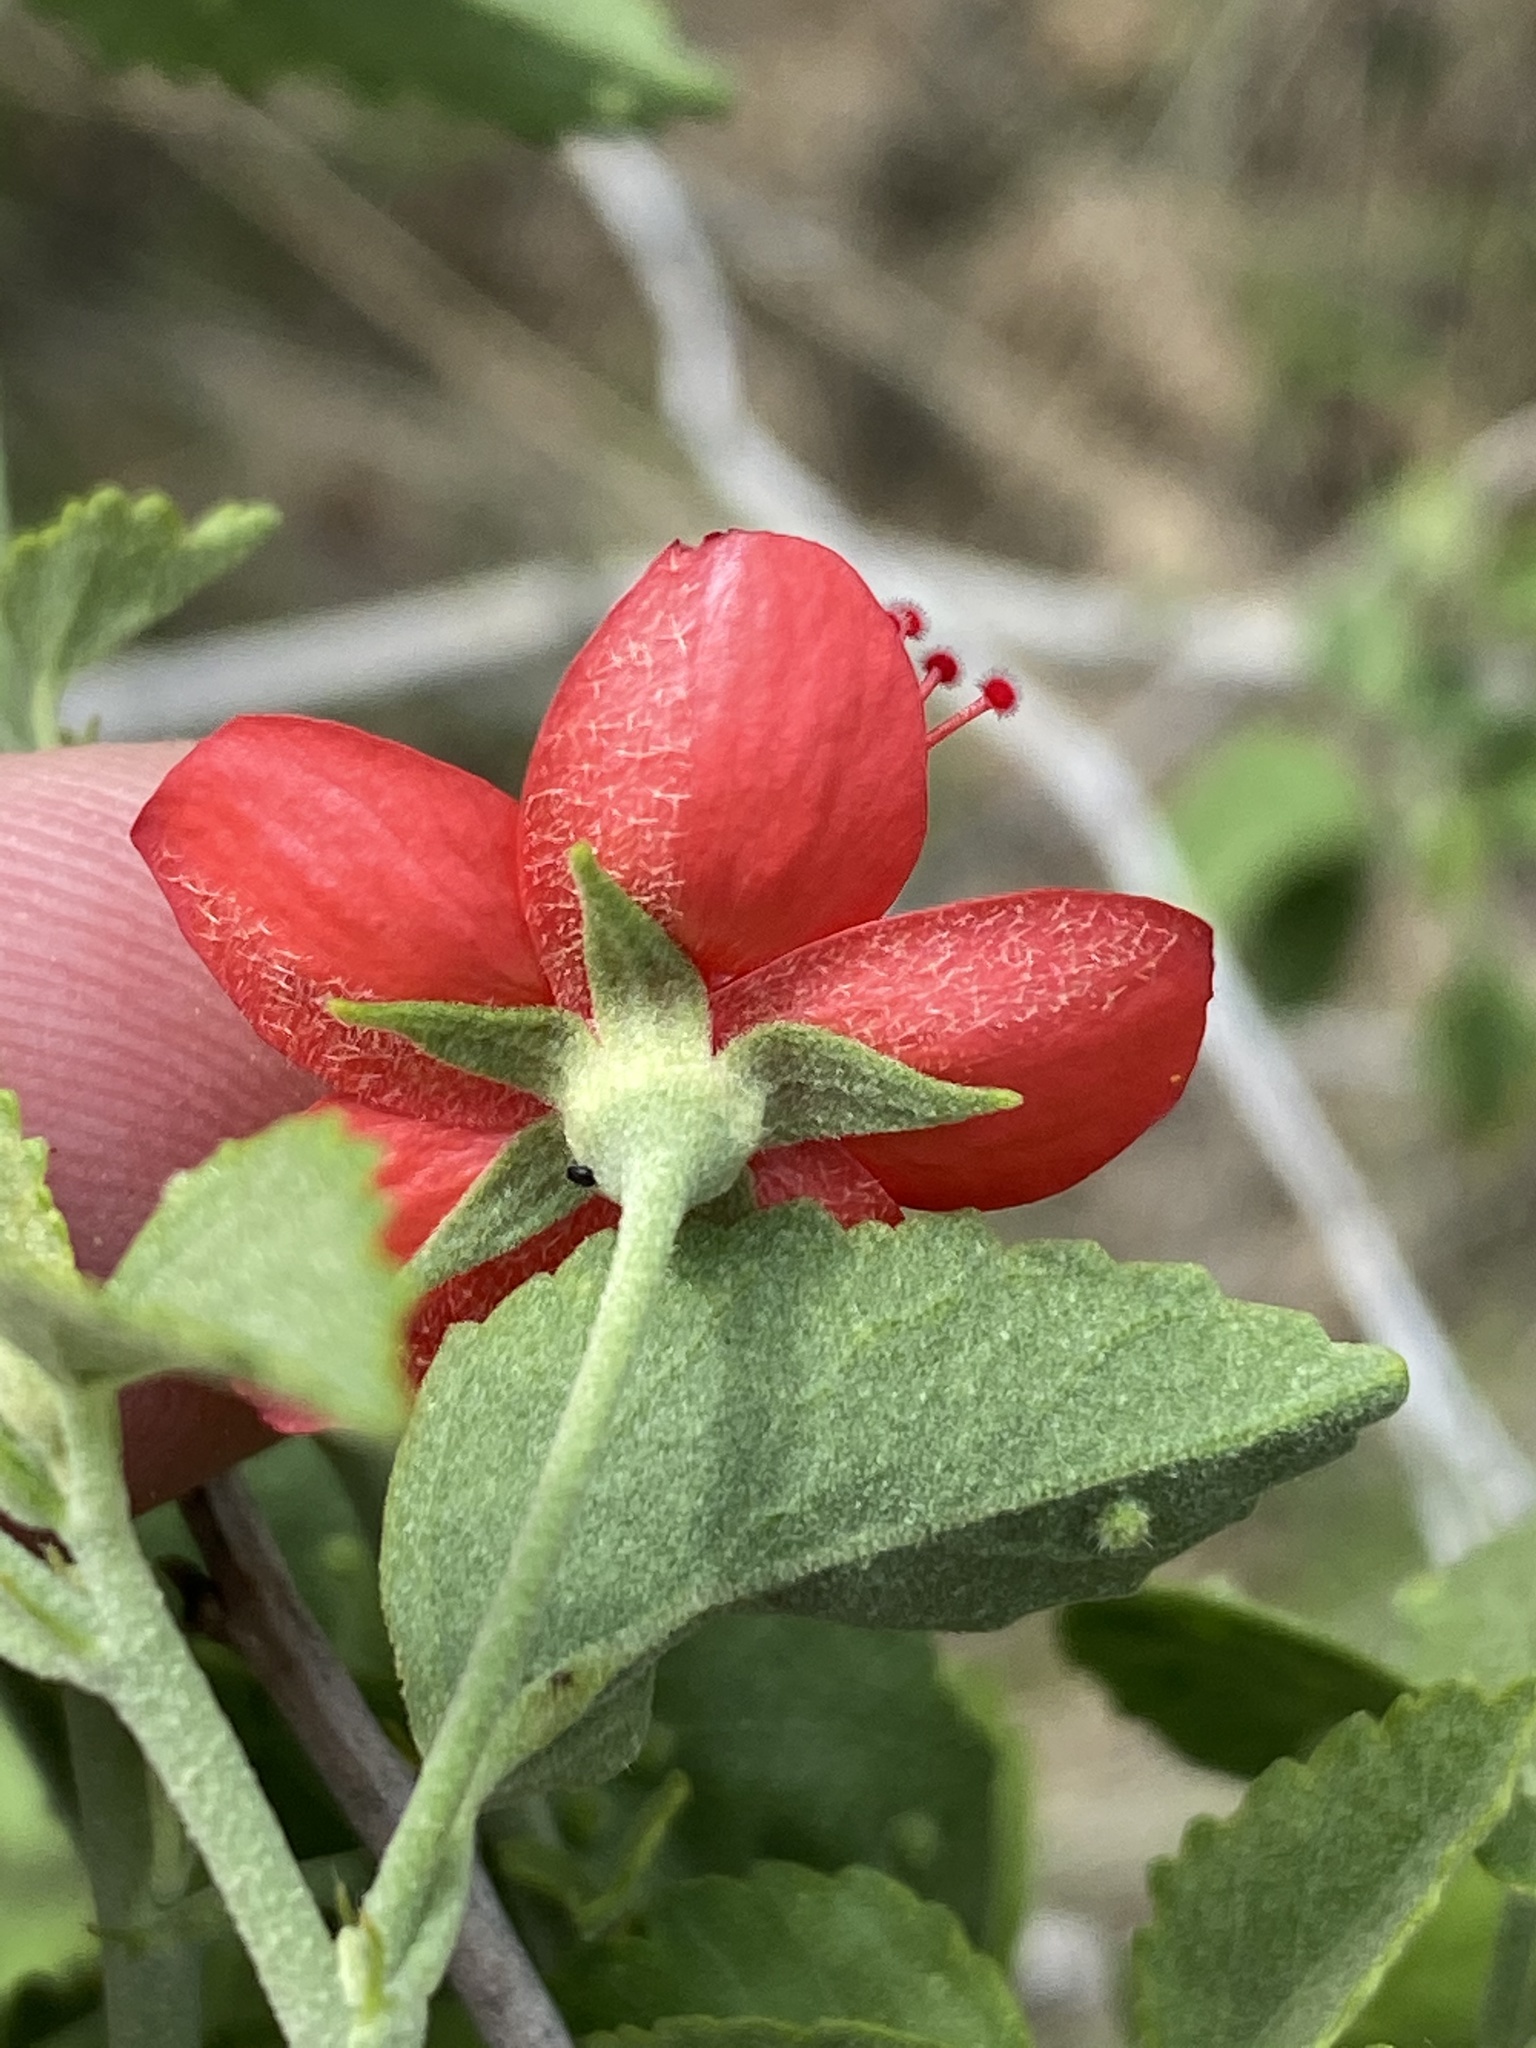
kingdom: Plantae
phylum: Tracheophyta
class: Magnoliopsida
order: Malvales
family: Malvaceae
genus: Hibiscus
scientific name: Hibiscus elliottiae
